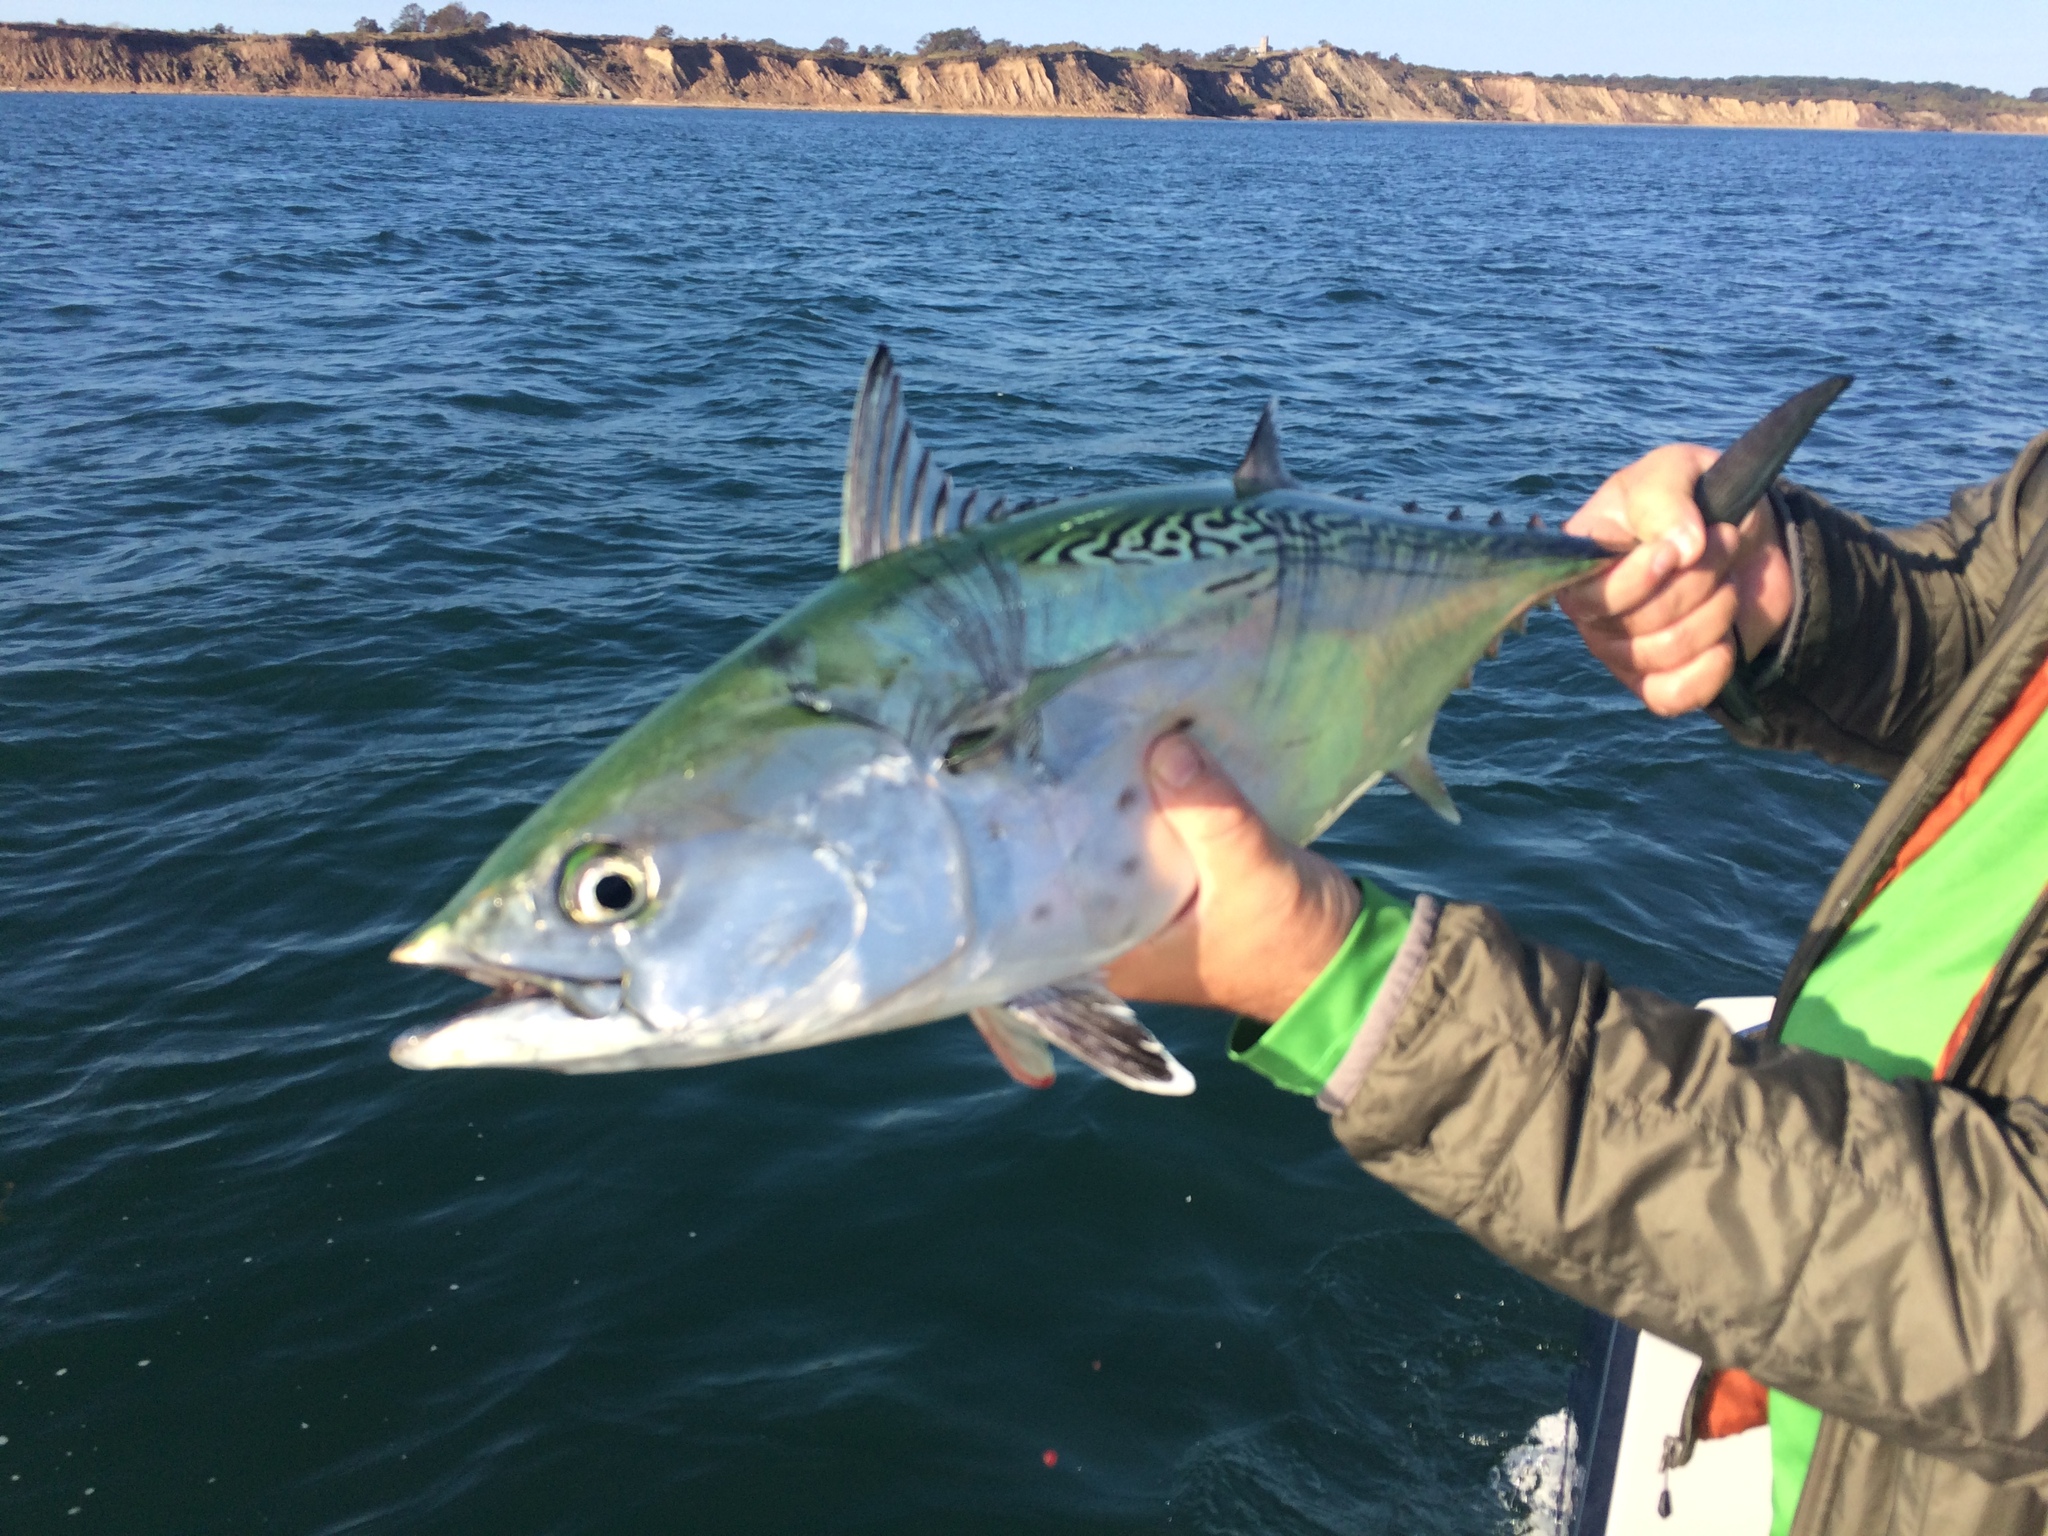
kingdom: Animalia
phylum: Chordata
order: Perciformes
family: Scombridae
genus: Euthynnus
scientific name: Euthynnus alletteratus
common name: Little tunny
